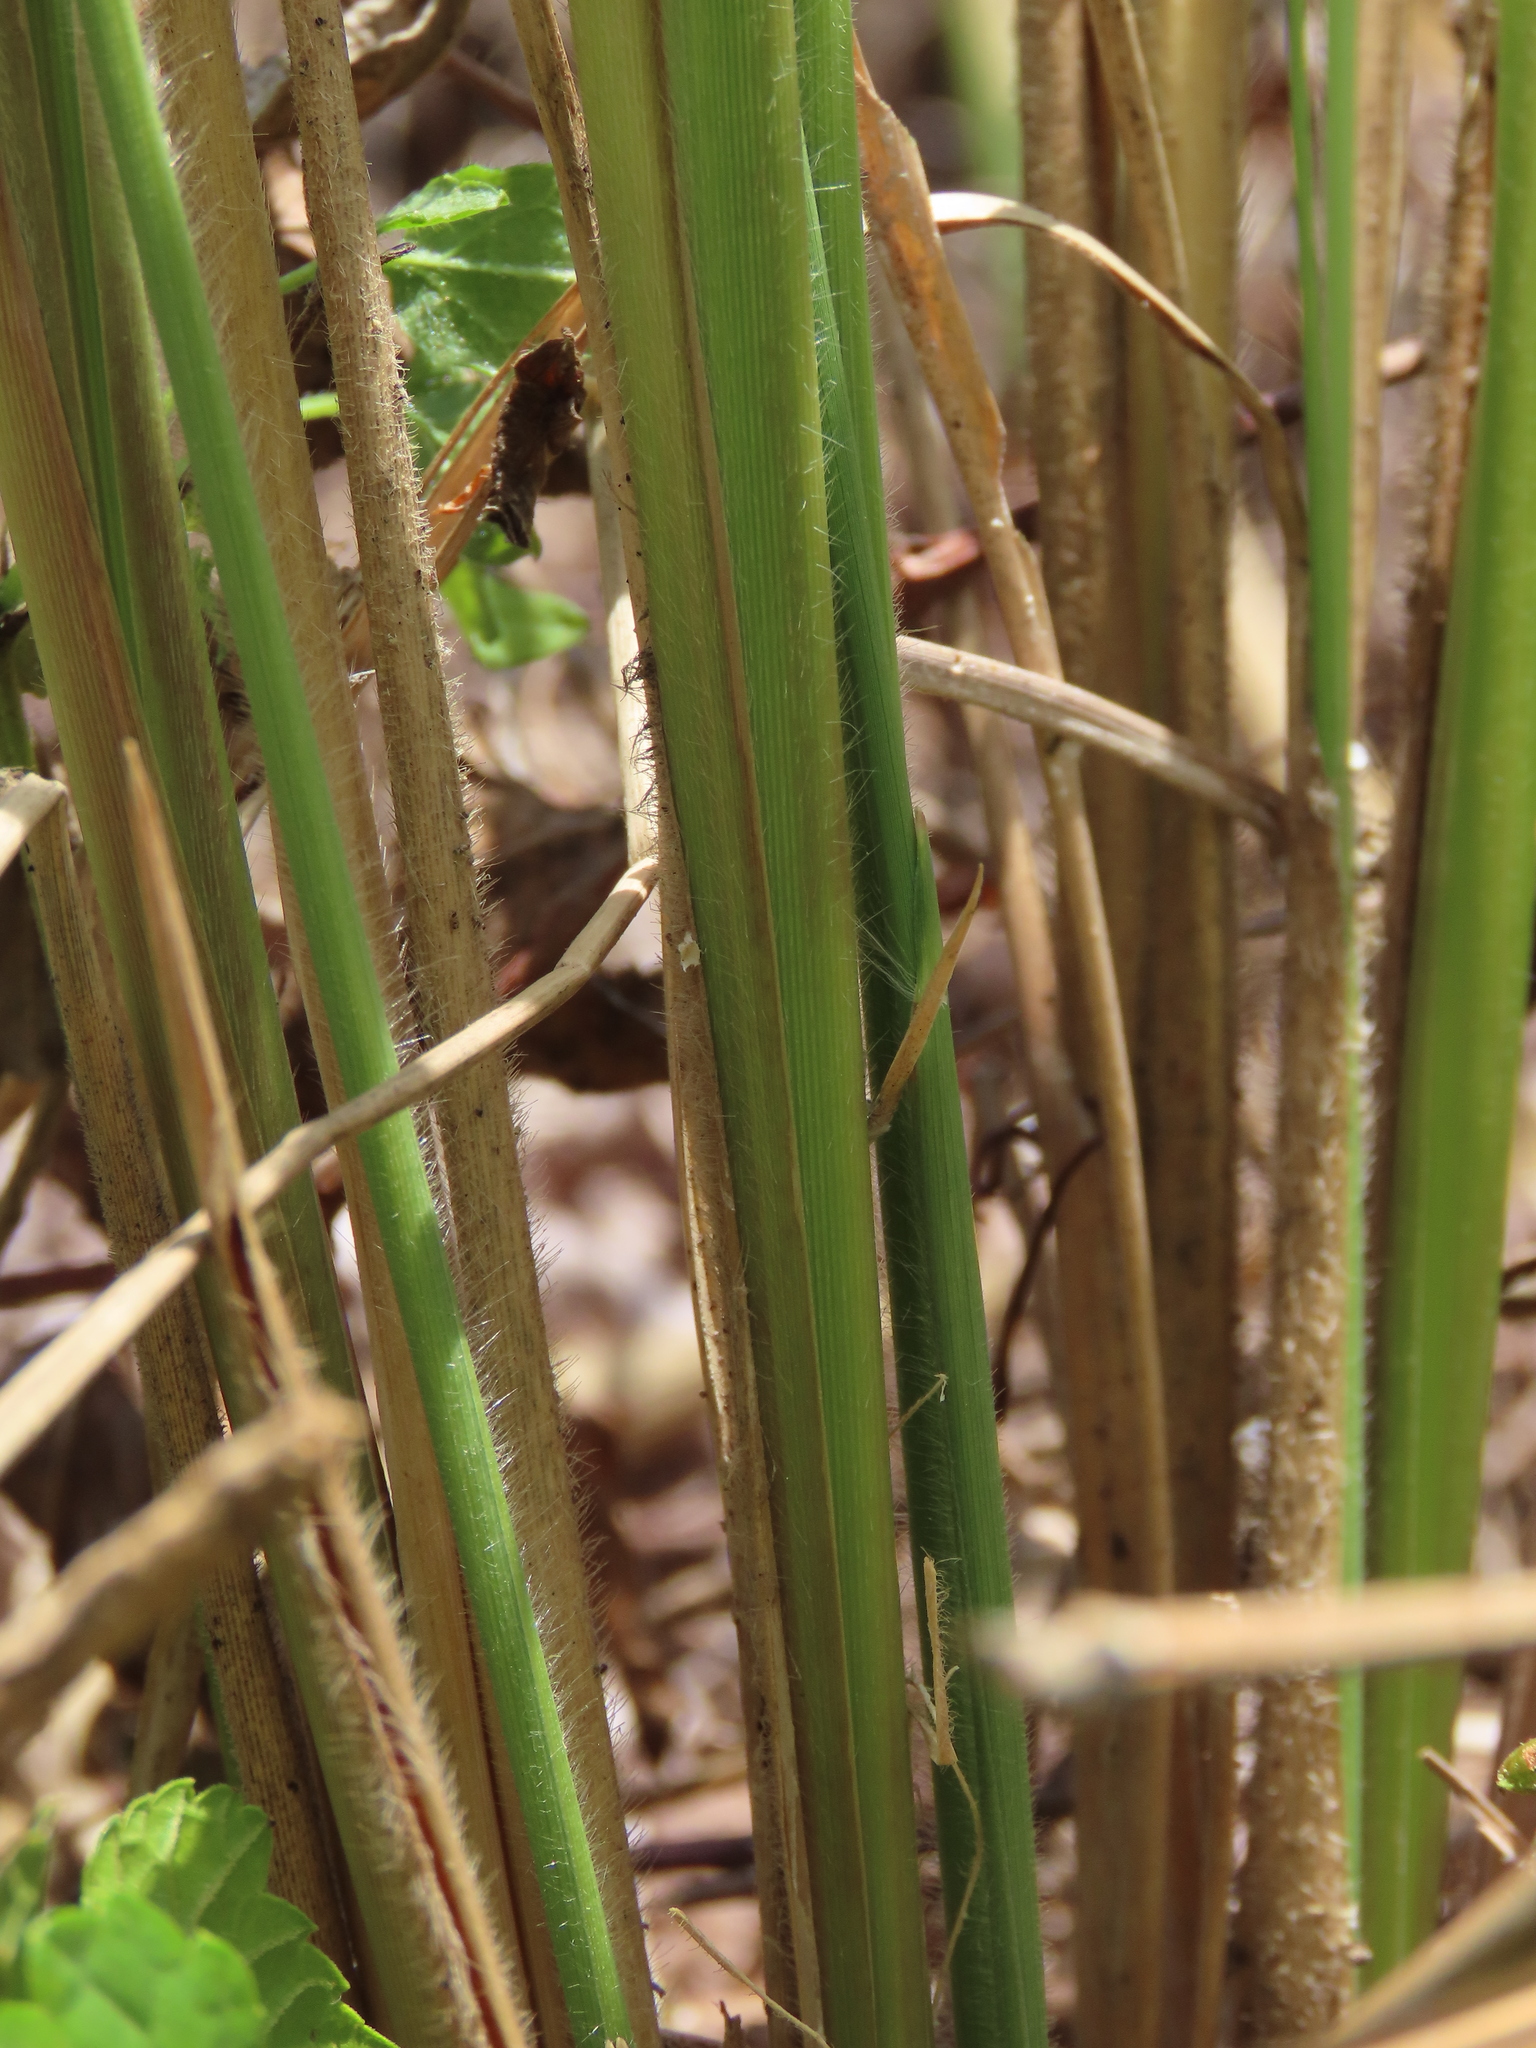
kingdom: Plantae
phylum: Tracheophyta
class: Liliopsida
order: Poales
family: Poaceae
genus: Imperata
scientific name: Imperata cylindrica
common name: Cogongrass
